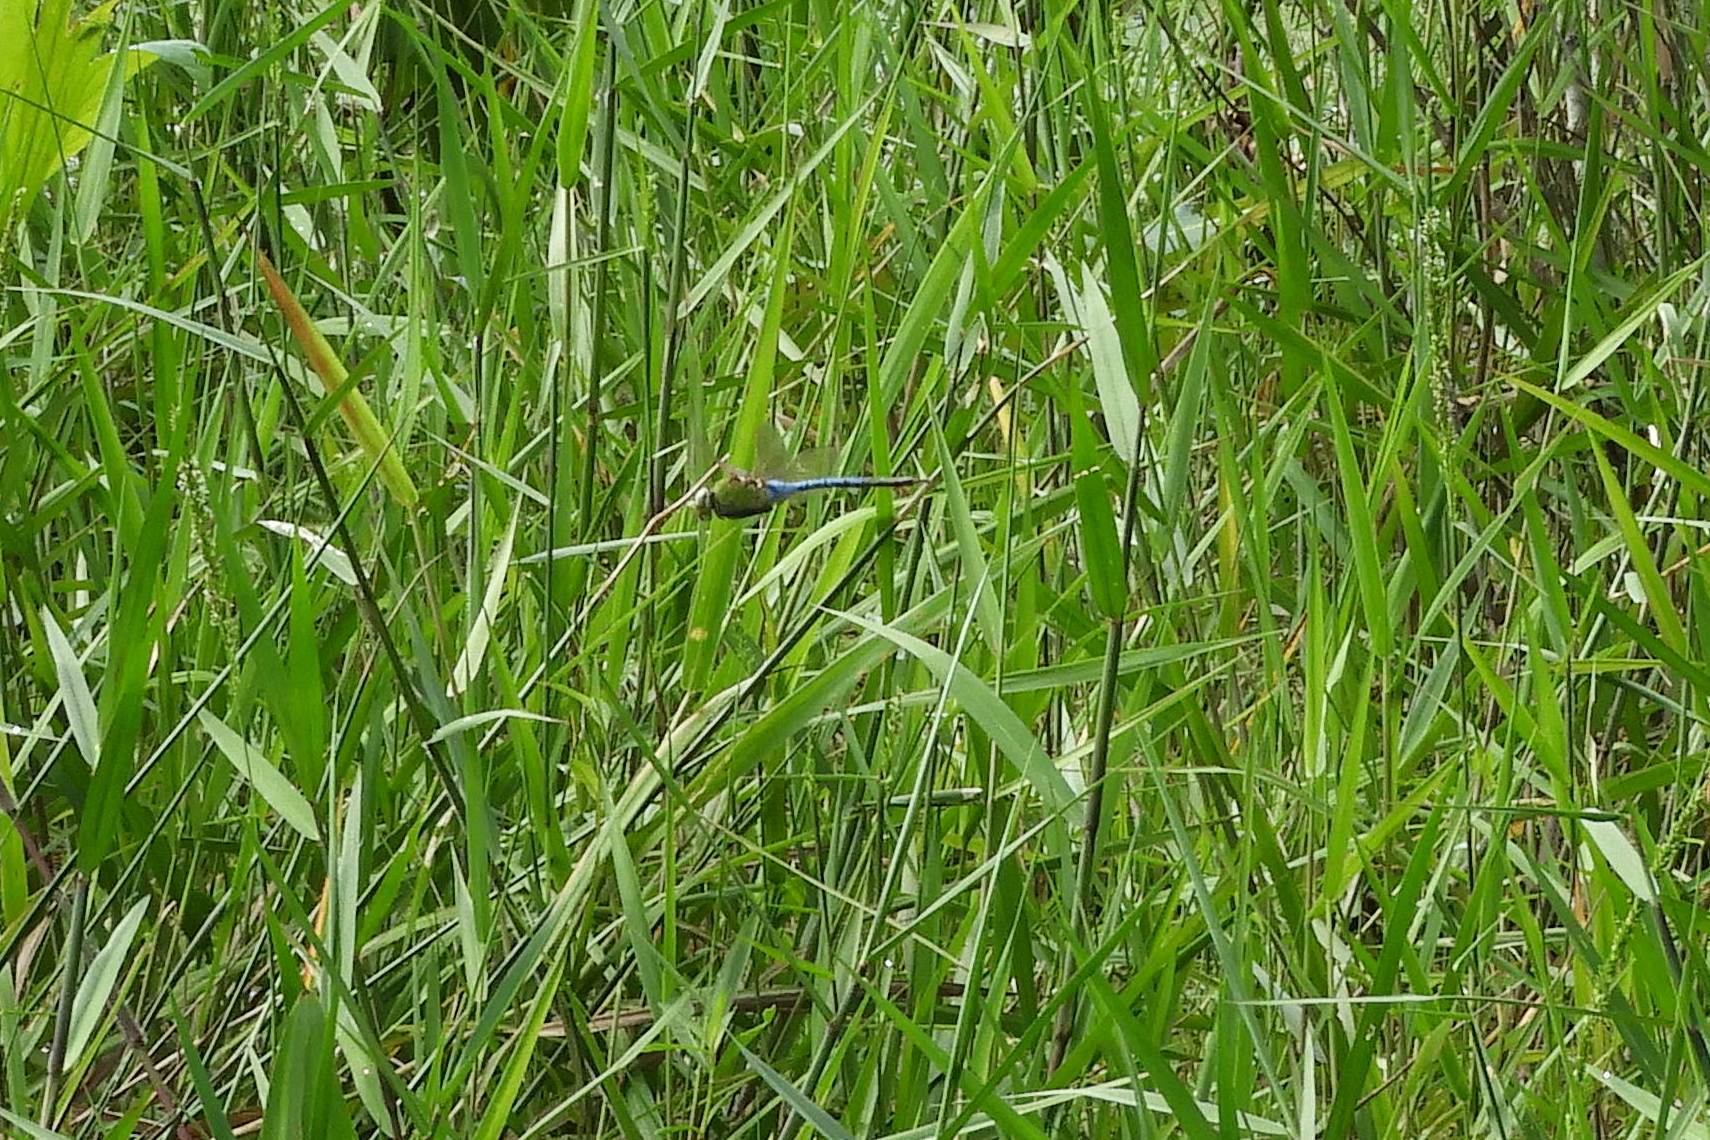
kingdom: Animalia
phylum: Arthropoda
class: Insecta
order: Odonata
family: Aeshnidae
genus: Anax
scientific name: Anax junius
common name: Common green darner
